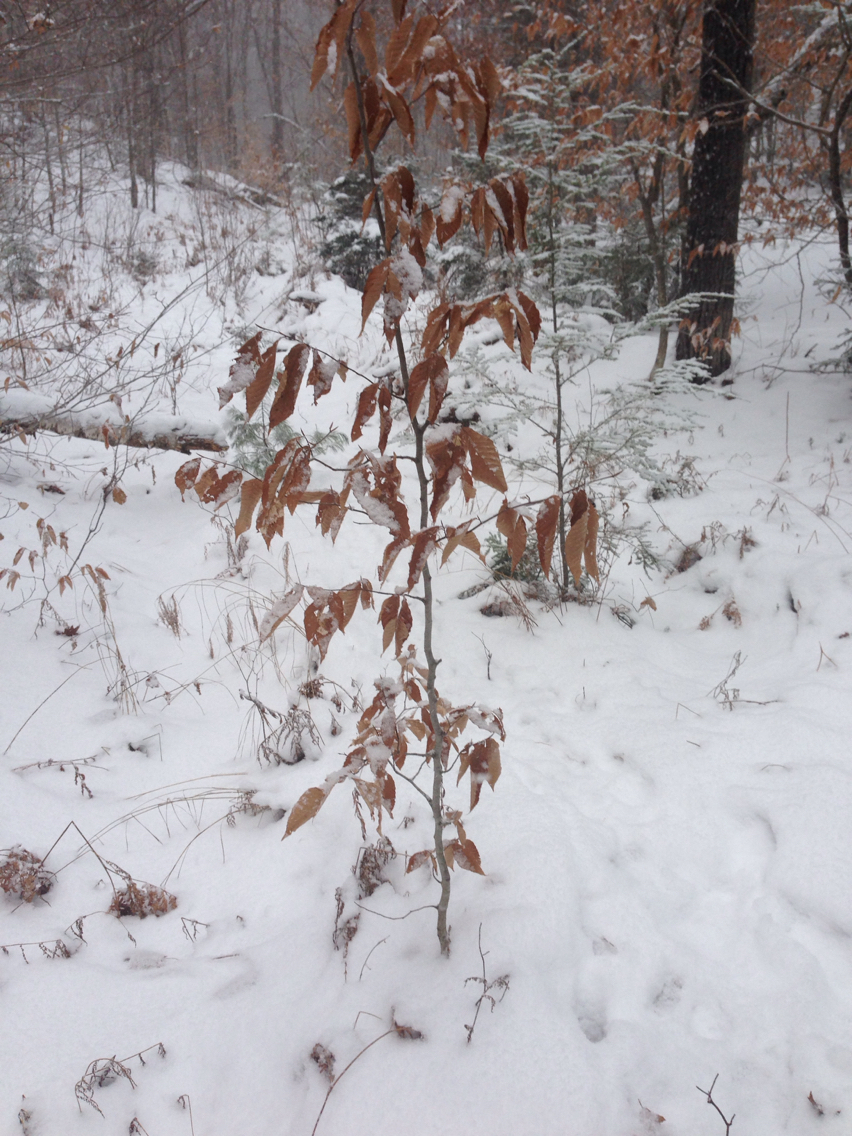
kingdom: Plantae
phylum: Tracheophyta
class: Magnoliopsida
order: Fagales
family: Fagaceae
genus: Fagus
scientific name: Fagus grandifolia
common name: American beech
